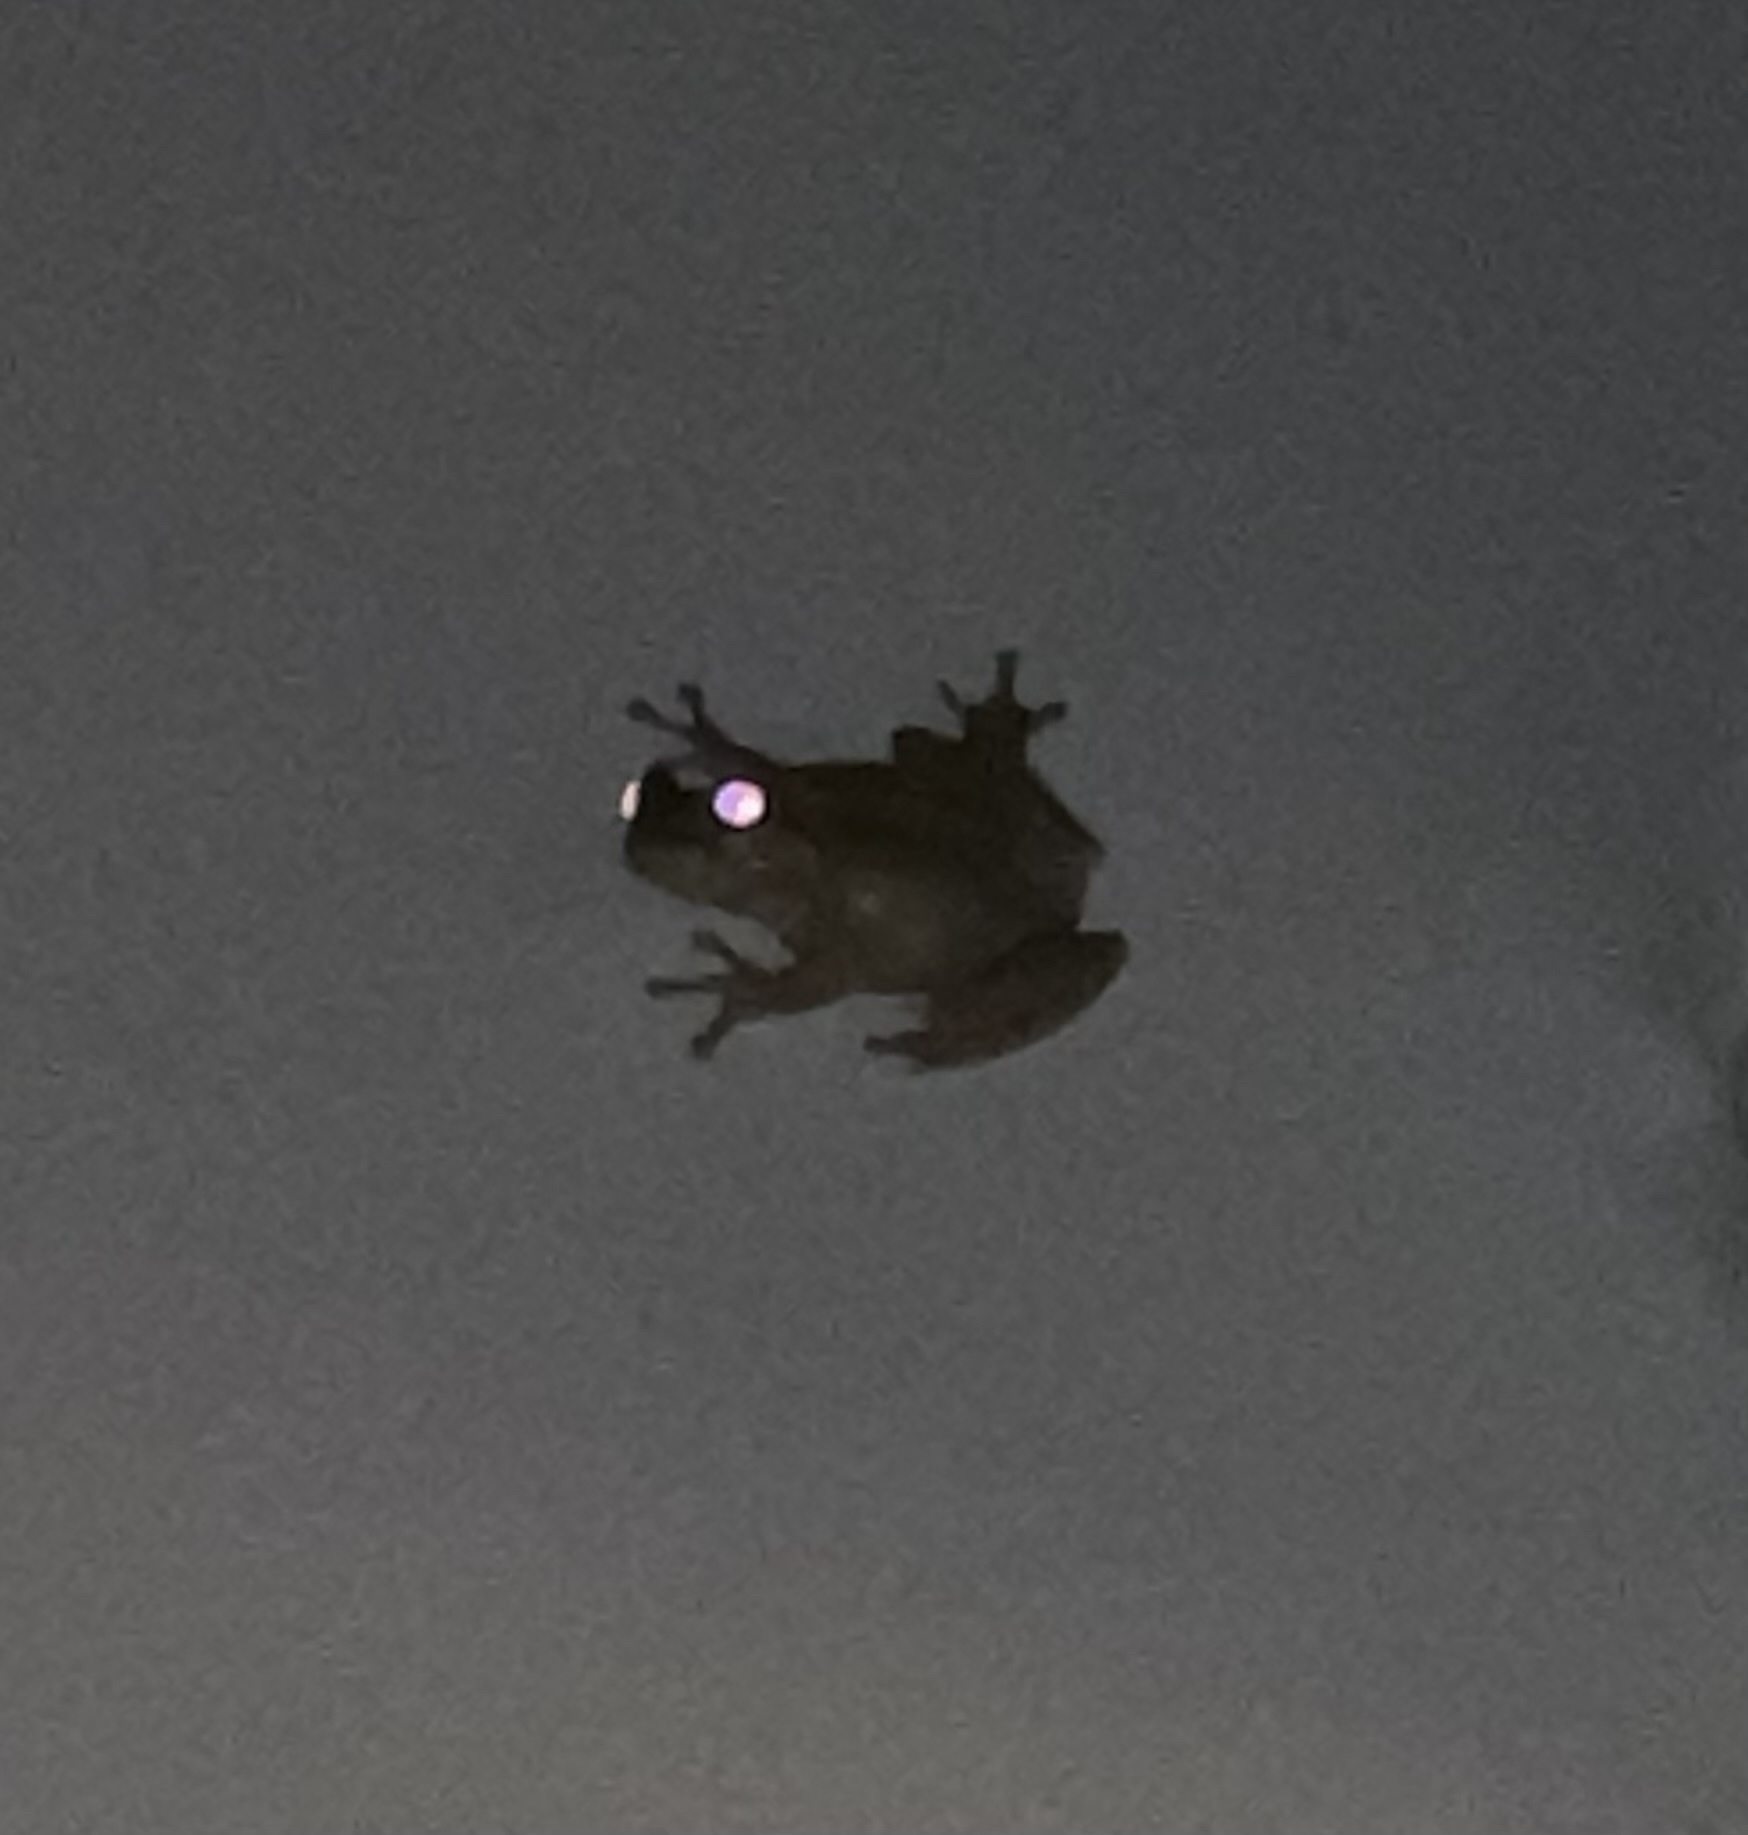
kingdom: Animalia
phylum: Chordata
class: Amphibia
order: Anura
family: Hylidae
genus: Osteopilus
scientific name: Osteopilus septentrionalis
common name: Cuban treefrog
